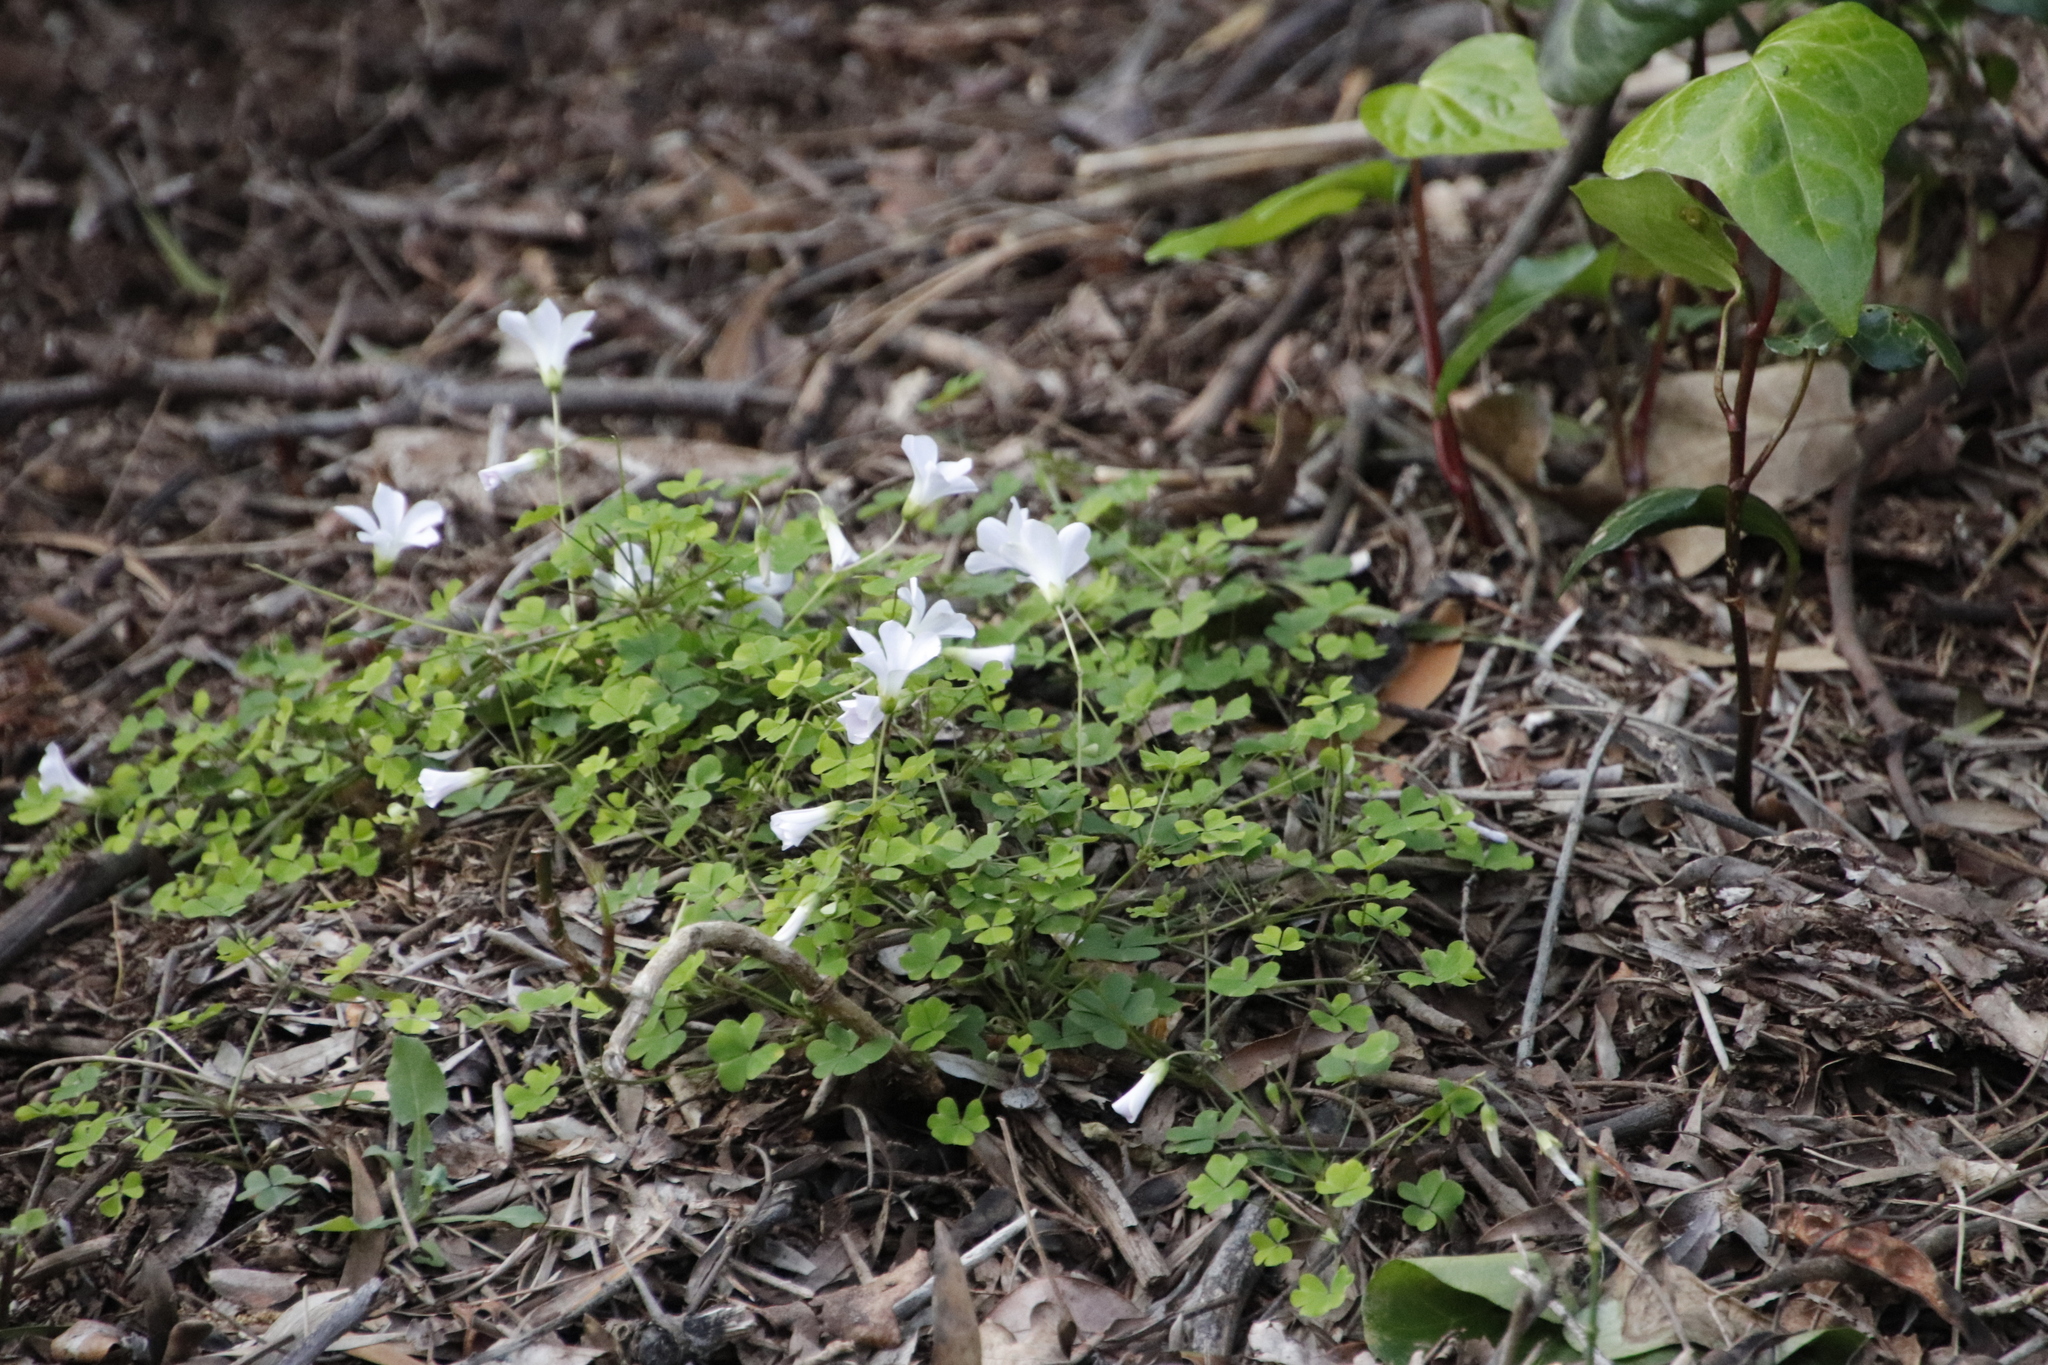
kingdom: Plantae
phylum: Tracheophyta
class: Magnoliopsida
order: Oxalidales
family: Oxalidaceae
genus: Oxalis
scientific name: Oxalis incarnata
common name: Pale pink-sorrel
